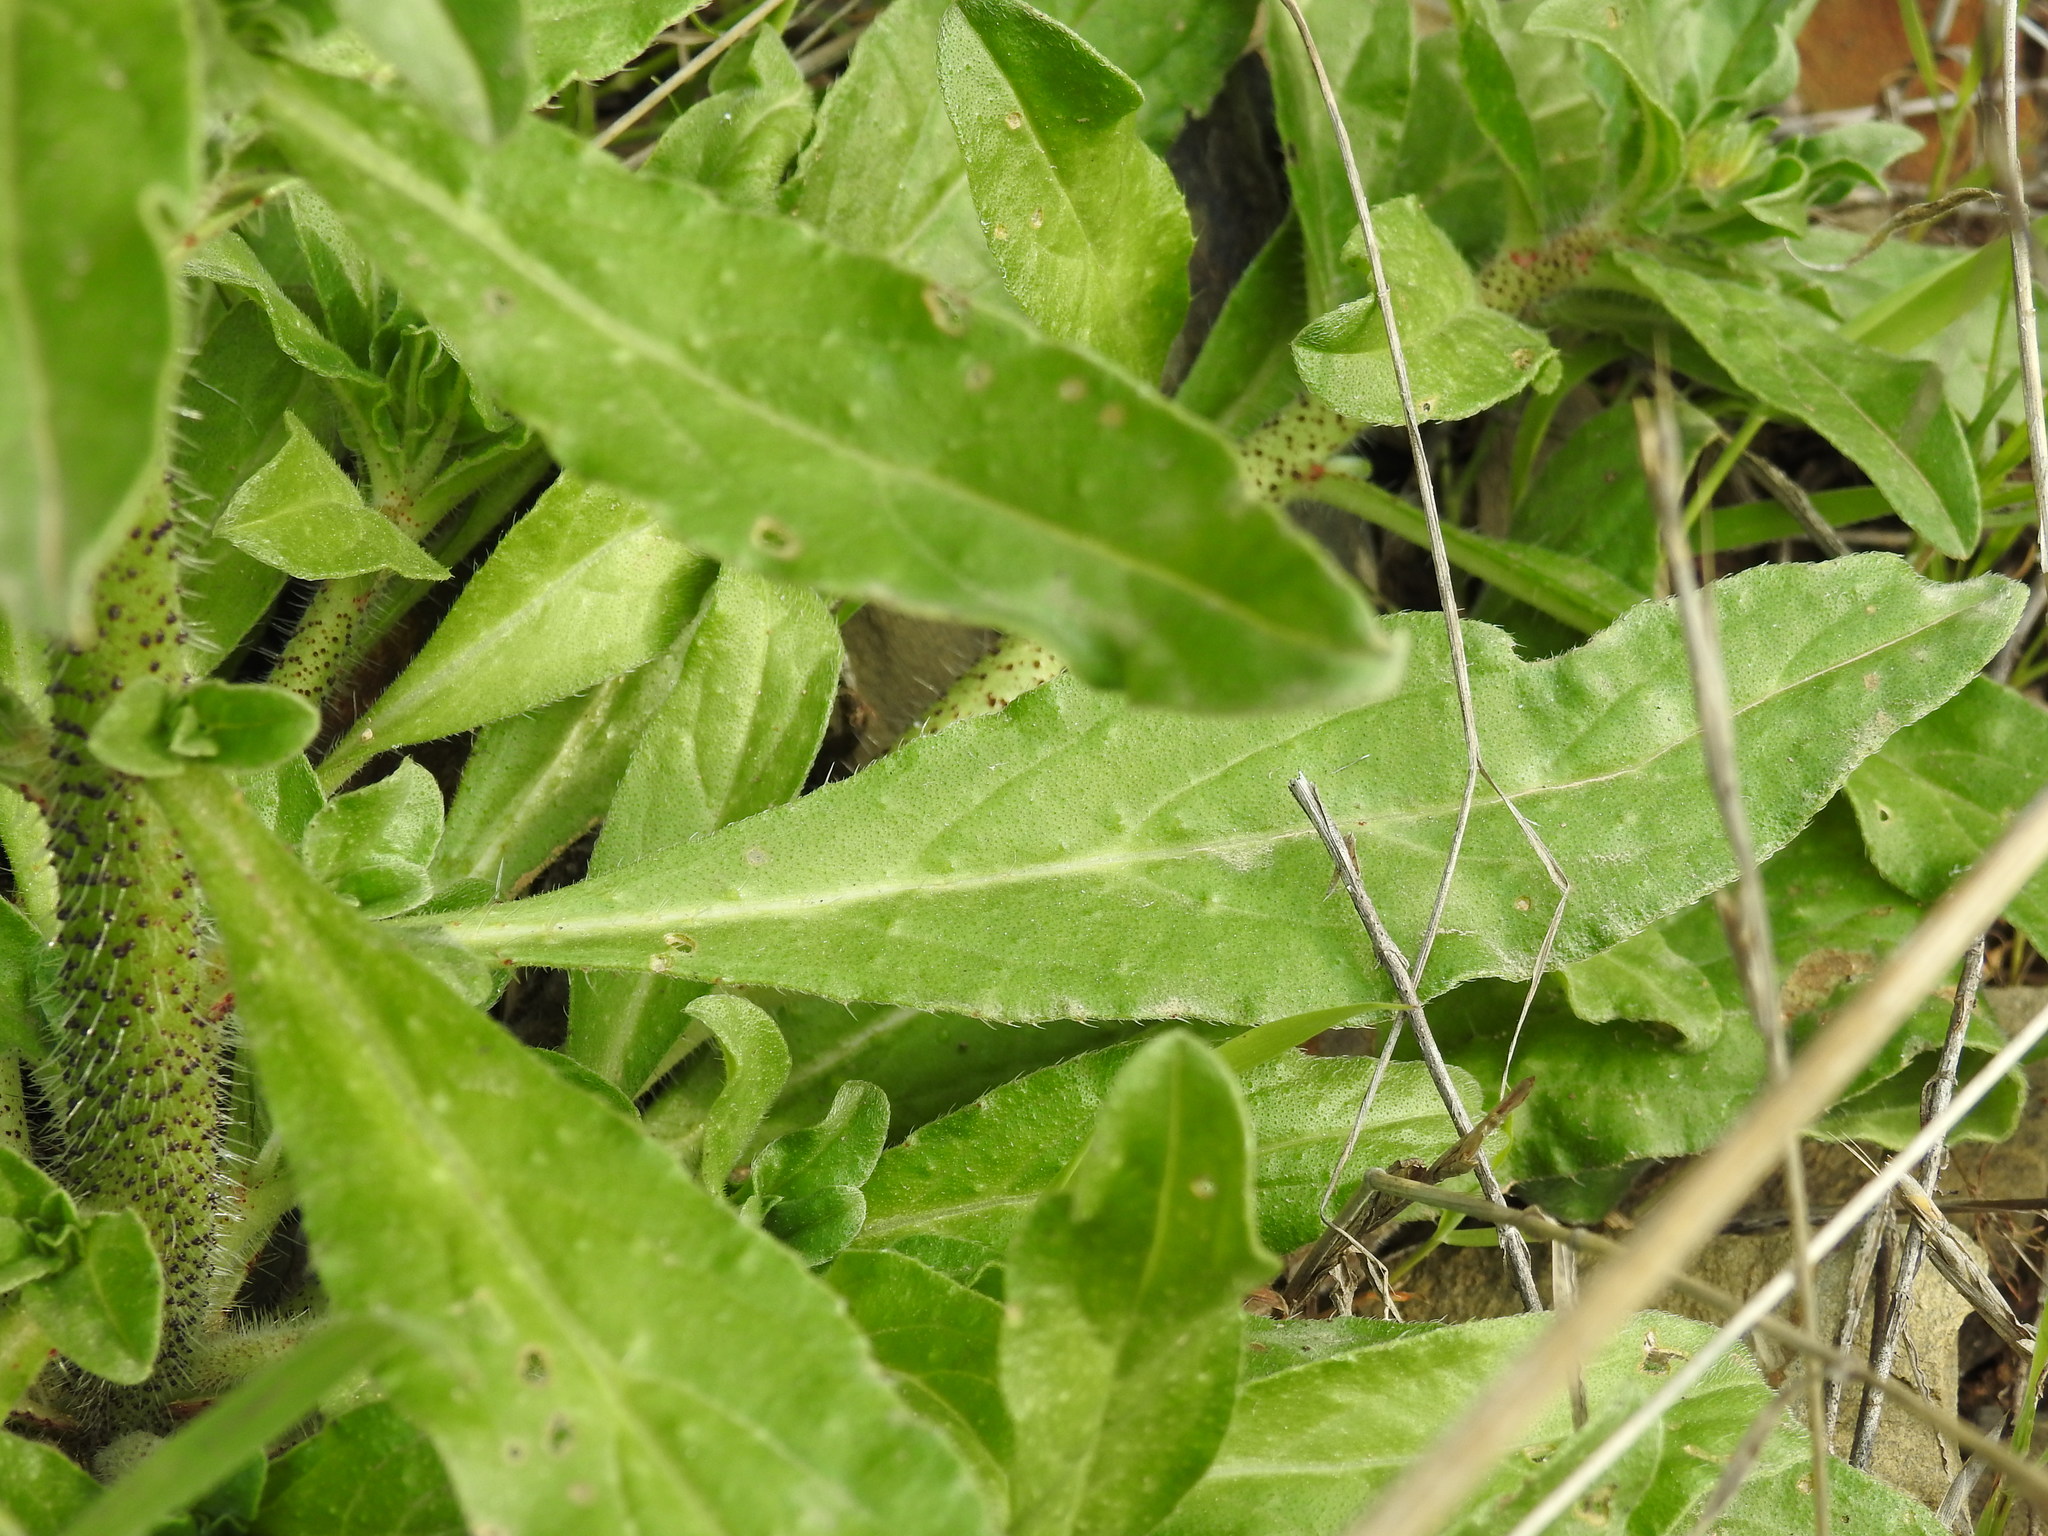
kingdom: Plantae
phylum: Tracheophyta
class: Magnoliopsida
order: Boraginales
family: Boraginaceae
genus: Echium
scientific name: Echium creticum
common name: Cretan viper's bugloss
